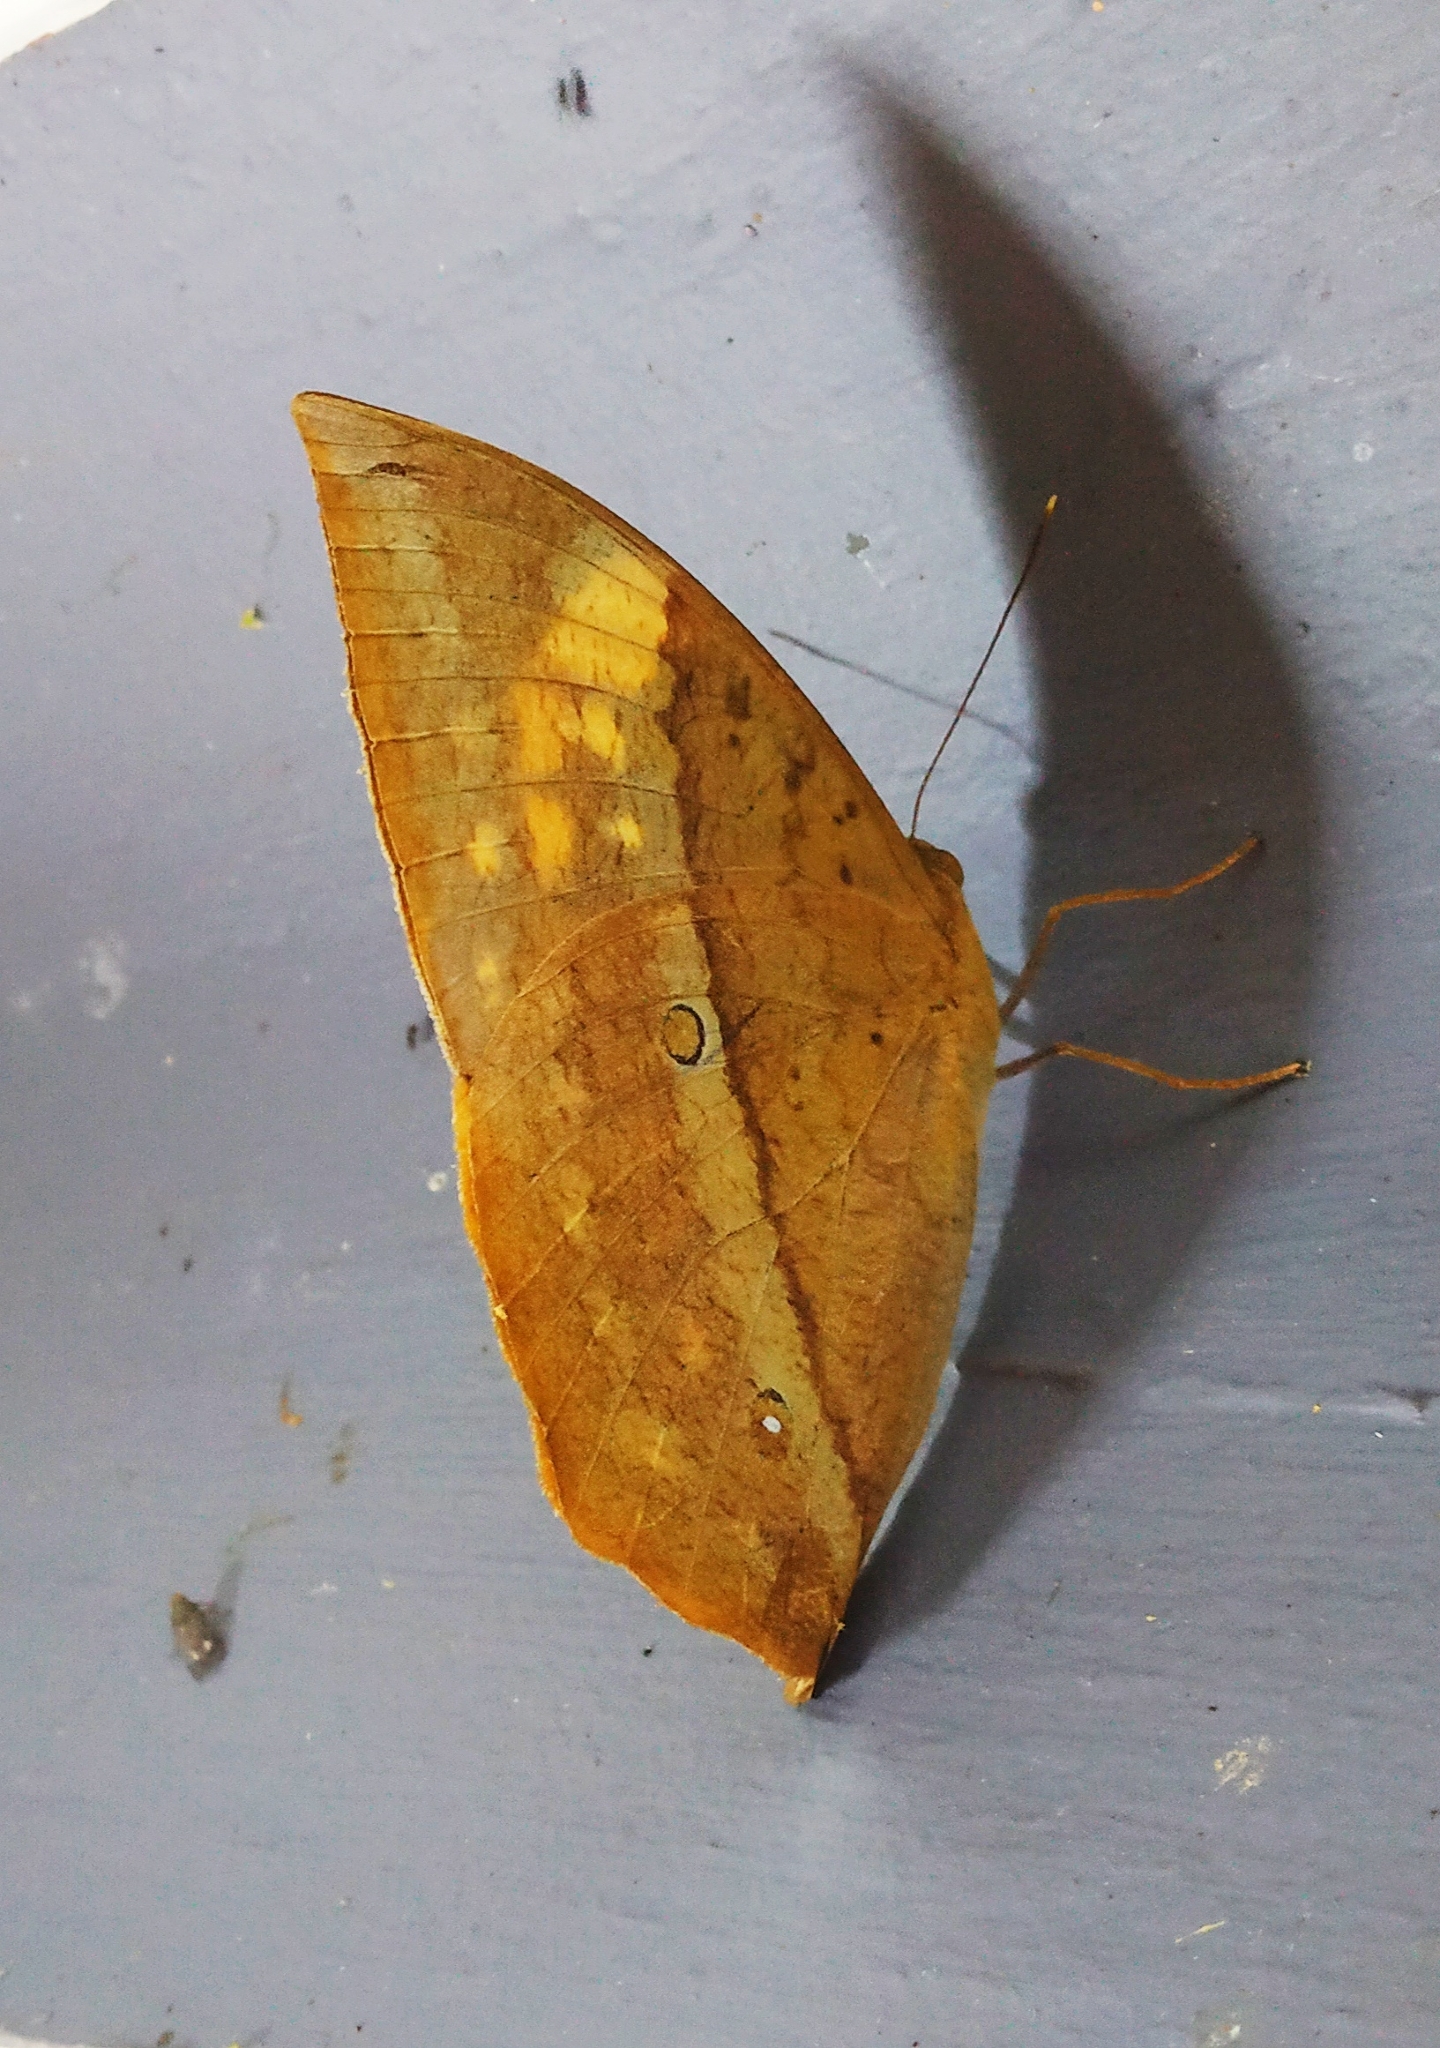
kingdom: Animalia
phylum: Arthropoda
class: Insecta
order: Lepidoptera
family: Nymphalidae
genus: Discophora
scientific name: Discophora lepida
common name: Southern duffer
